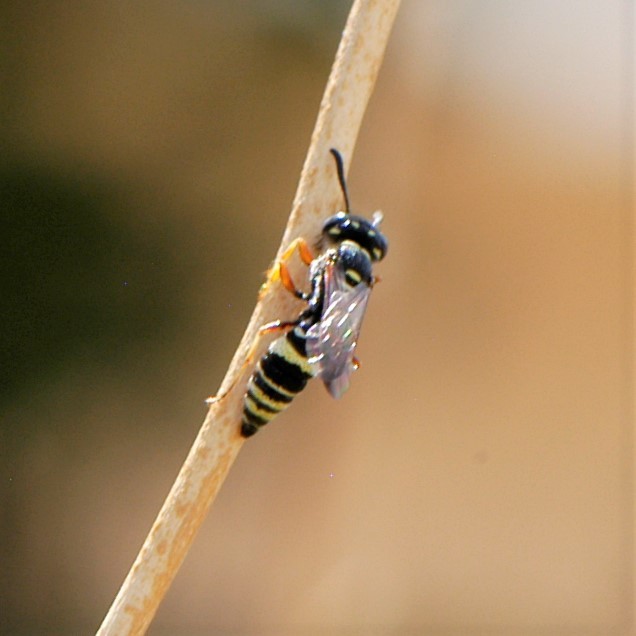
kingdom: Animalia
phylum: Arthropoda
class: Insecta
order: Hymenoptera
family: Crabronidae
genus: Philanthus
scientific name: Philanthus gibbosus
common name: Humped beewolf
